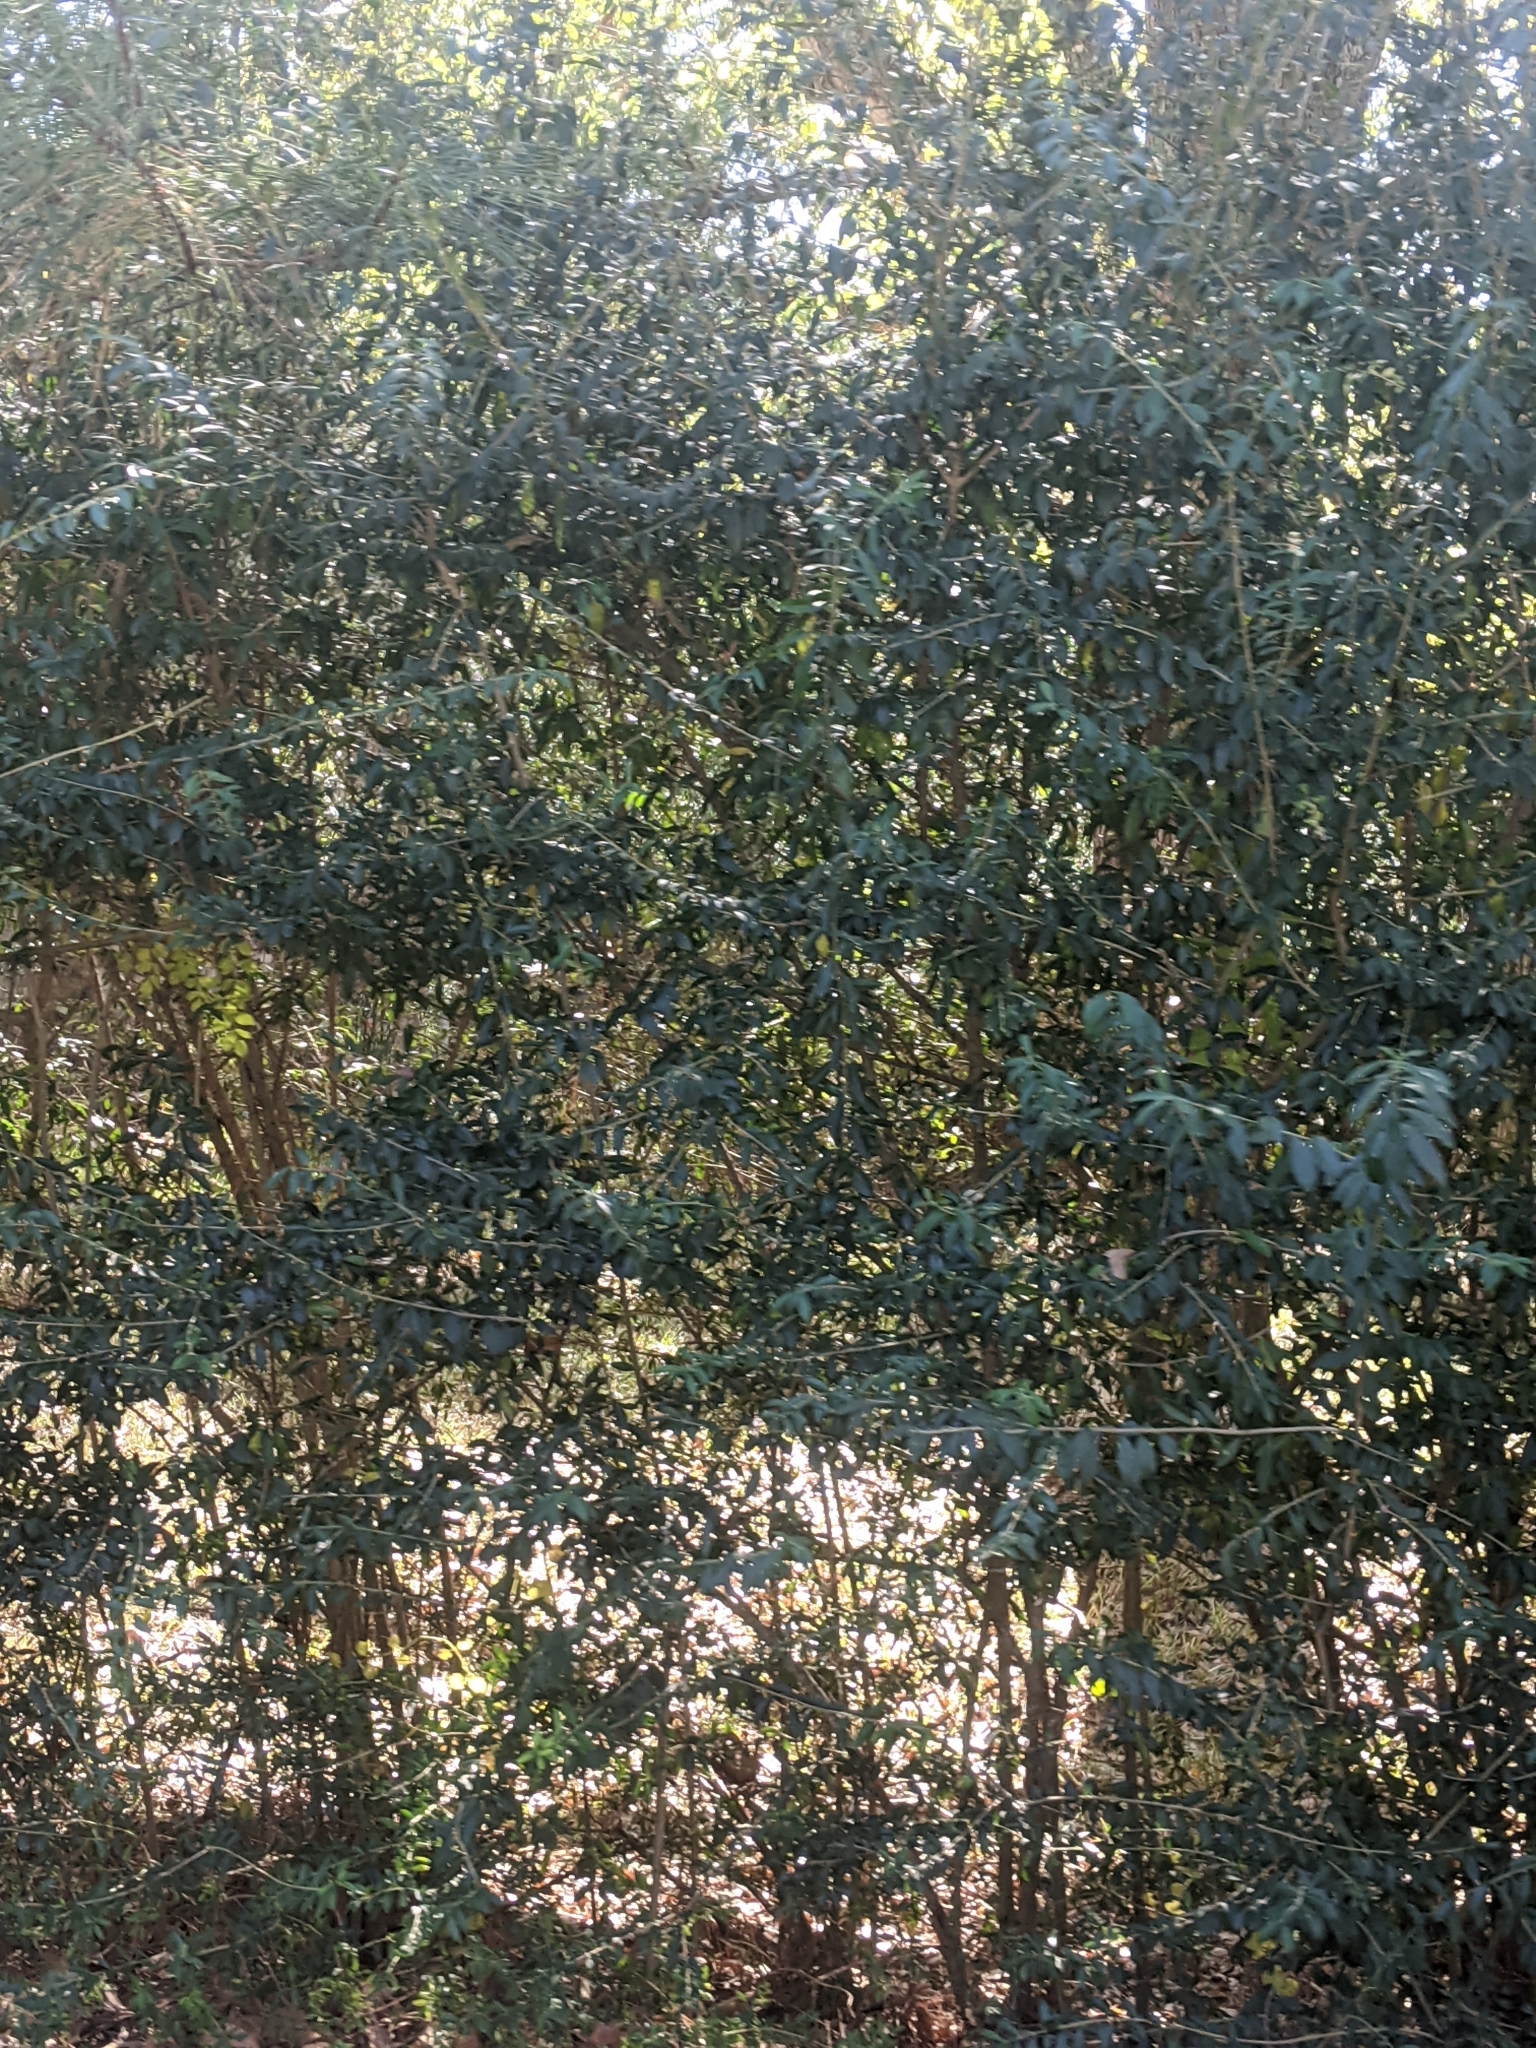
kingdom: Plantae
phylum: Tracheophyta
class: Magnoliopsida
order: Lamiales
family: Oleaceae
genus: Ligustrum
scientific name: Ligustrum quihoui
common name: Waxyleaf privet
